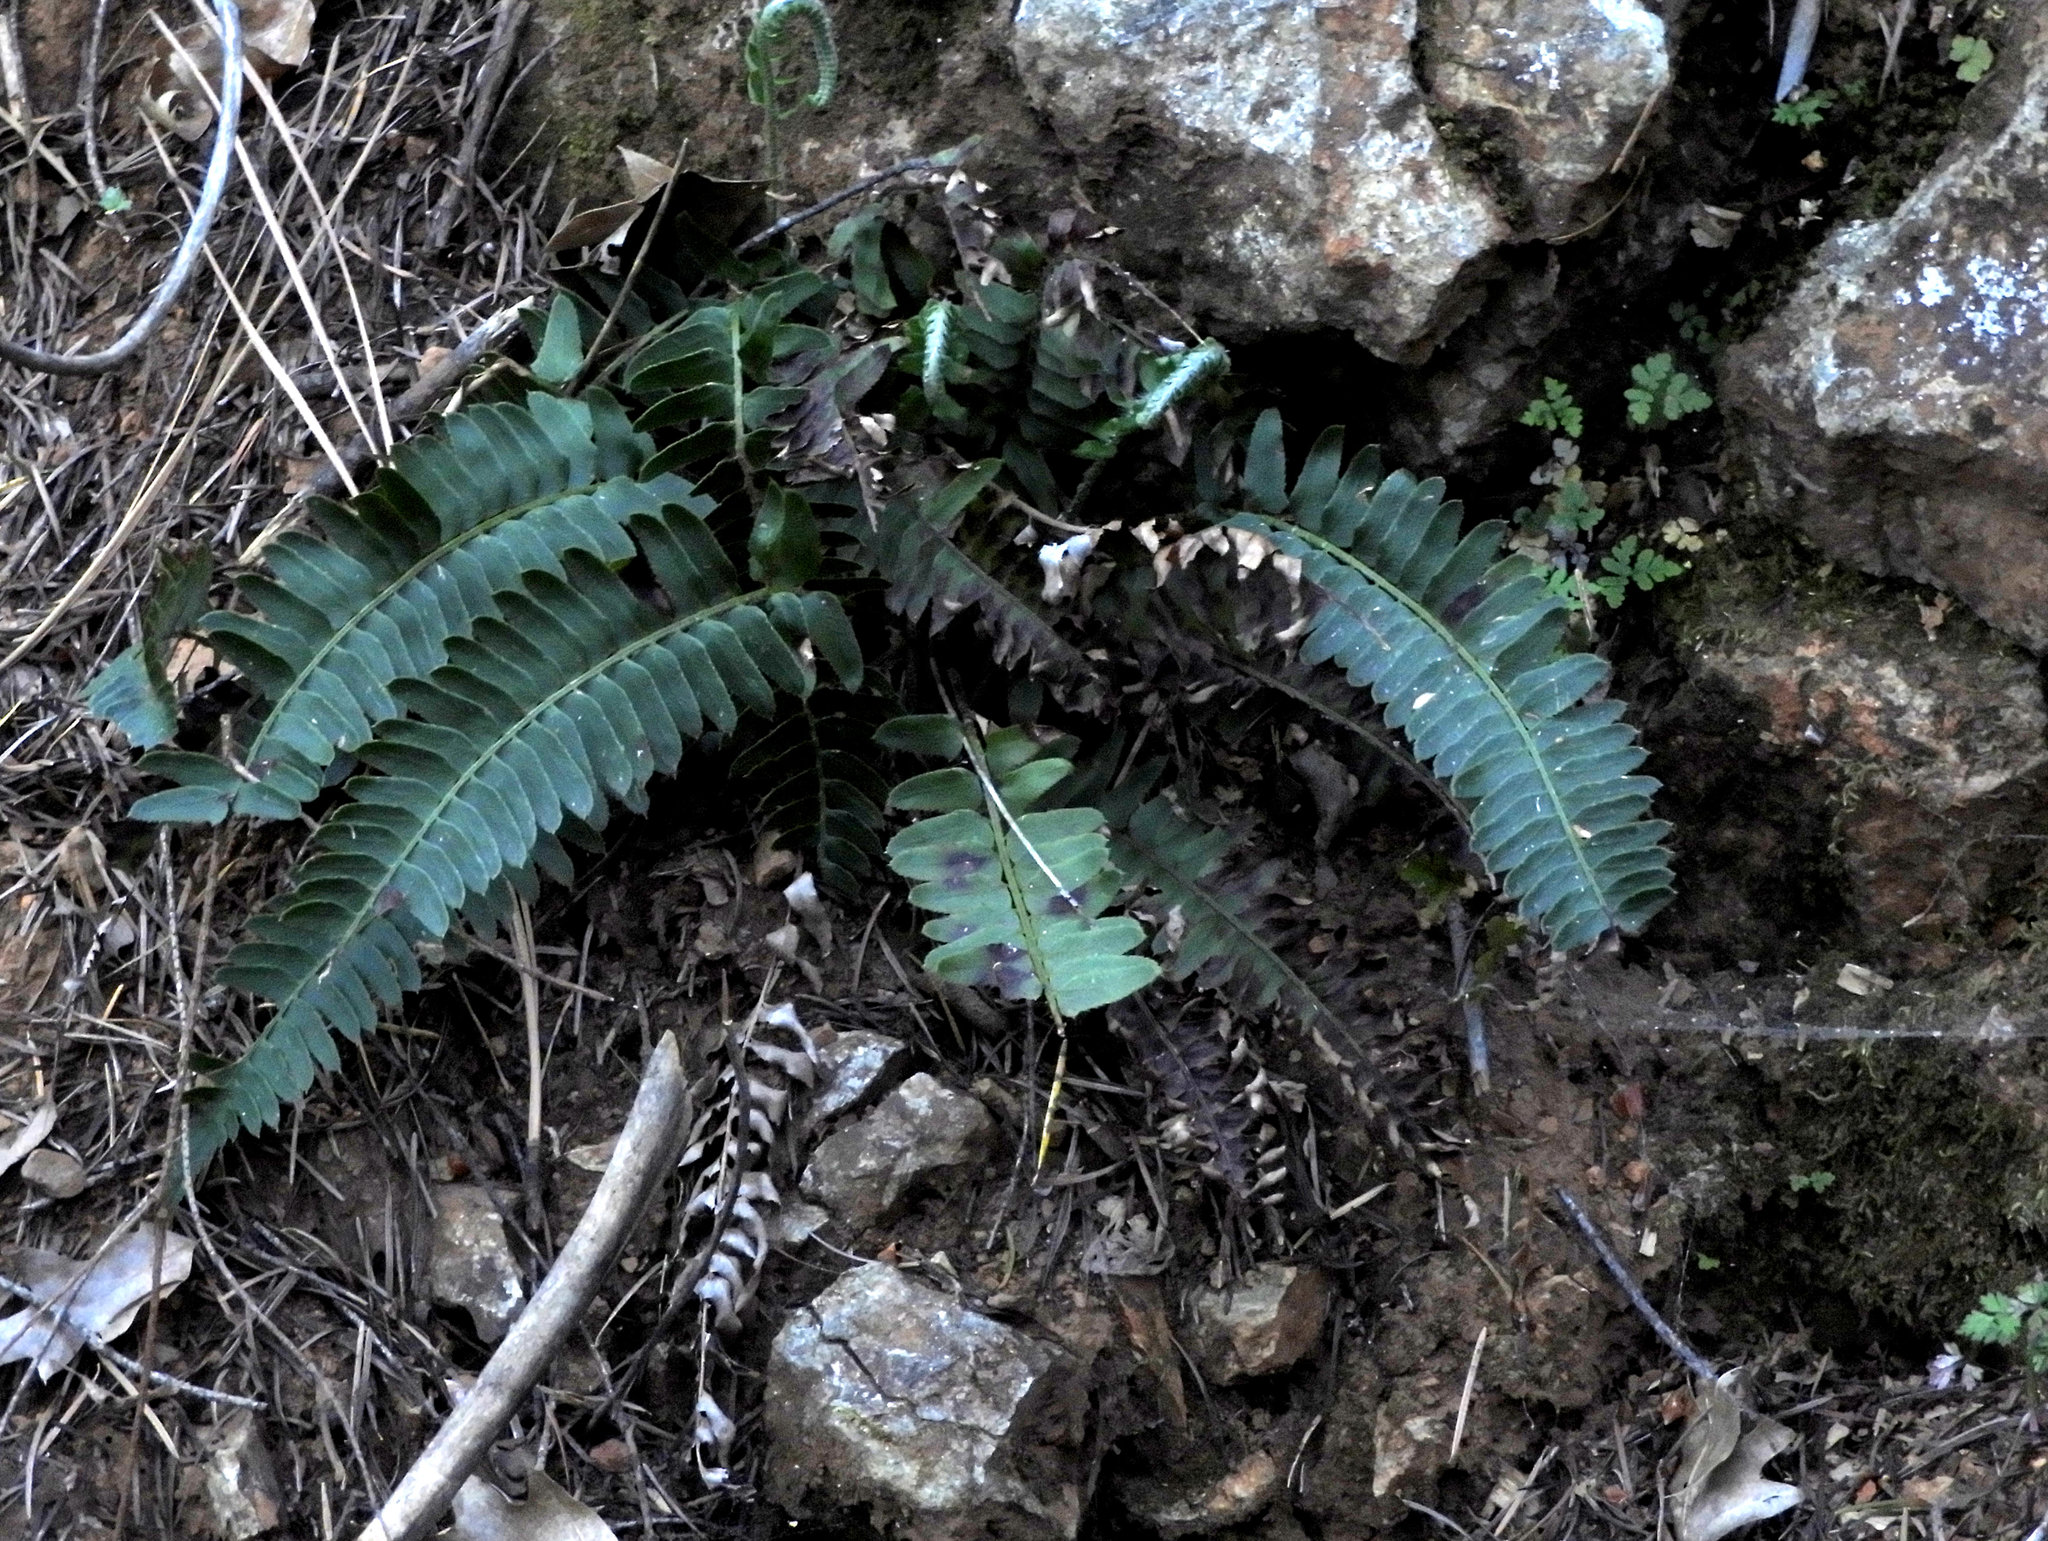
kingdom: Plantae
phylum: Tracheophyta
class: Polypodiopsida
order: Polypodiales
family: Dryopteridaceae
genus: Polystichum
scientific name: Polystichum imbricans
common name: Dwarf western sword fern
